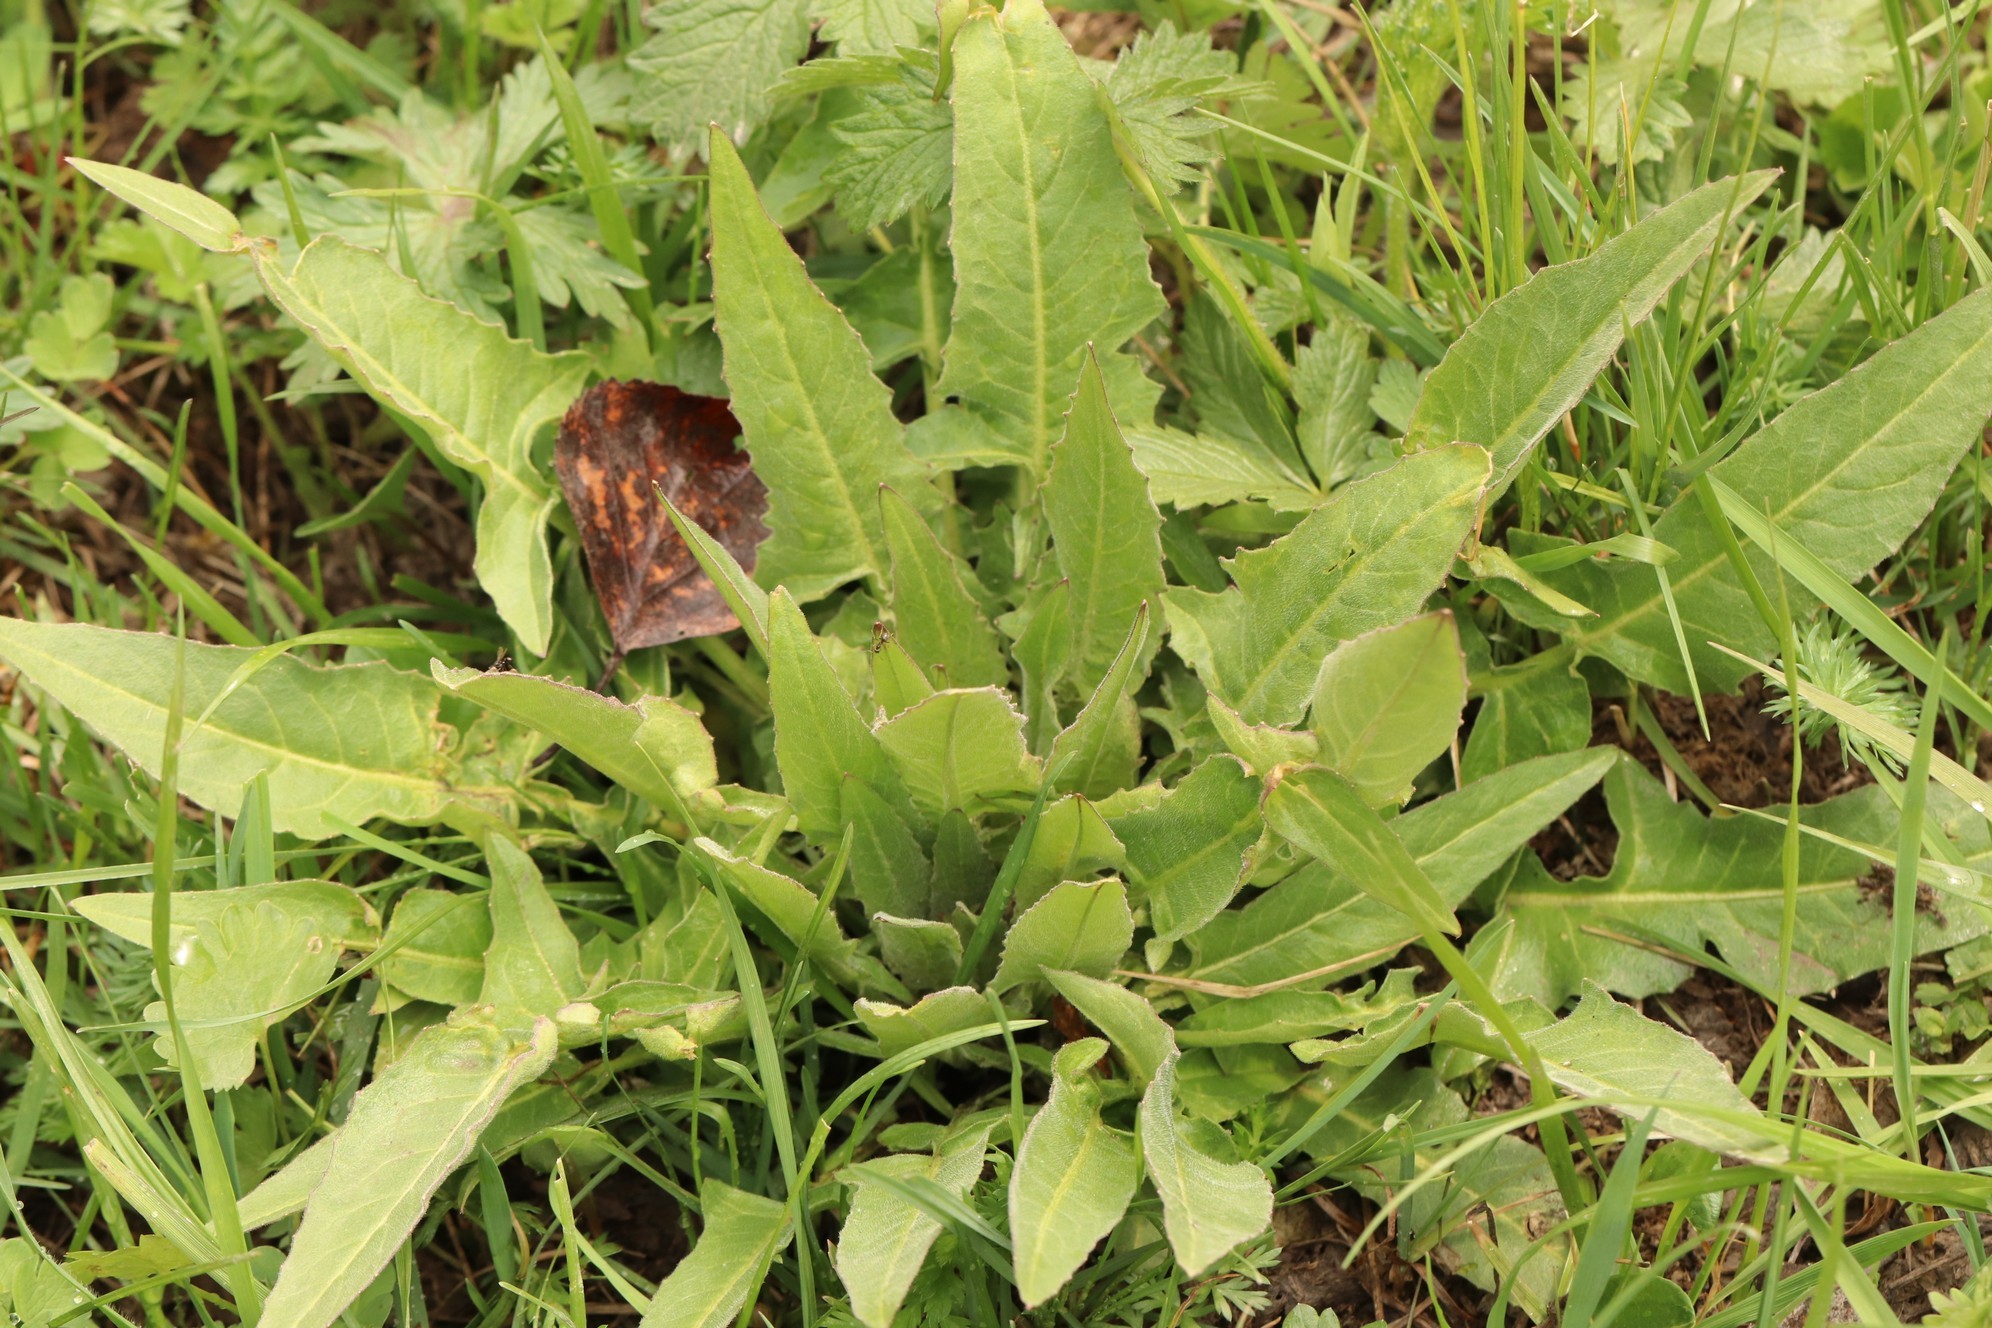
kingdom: Plantae
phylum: Tracheophyta
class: Magnoliopsida
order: Brassicales
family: Brassicaceae
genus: Bunias
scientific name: Bunias orientalis
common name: Warty-cabbage
